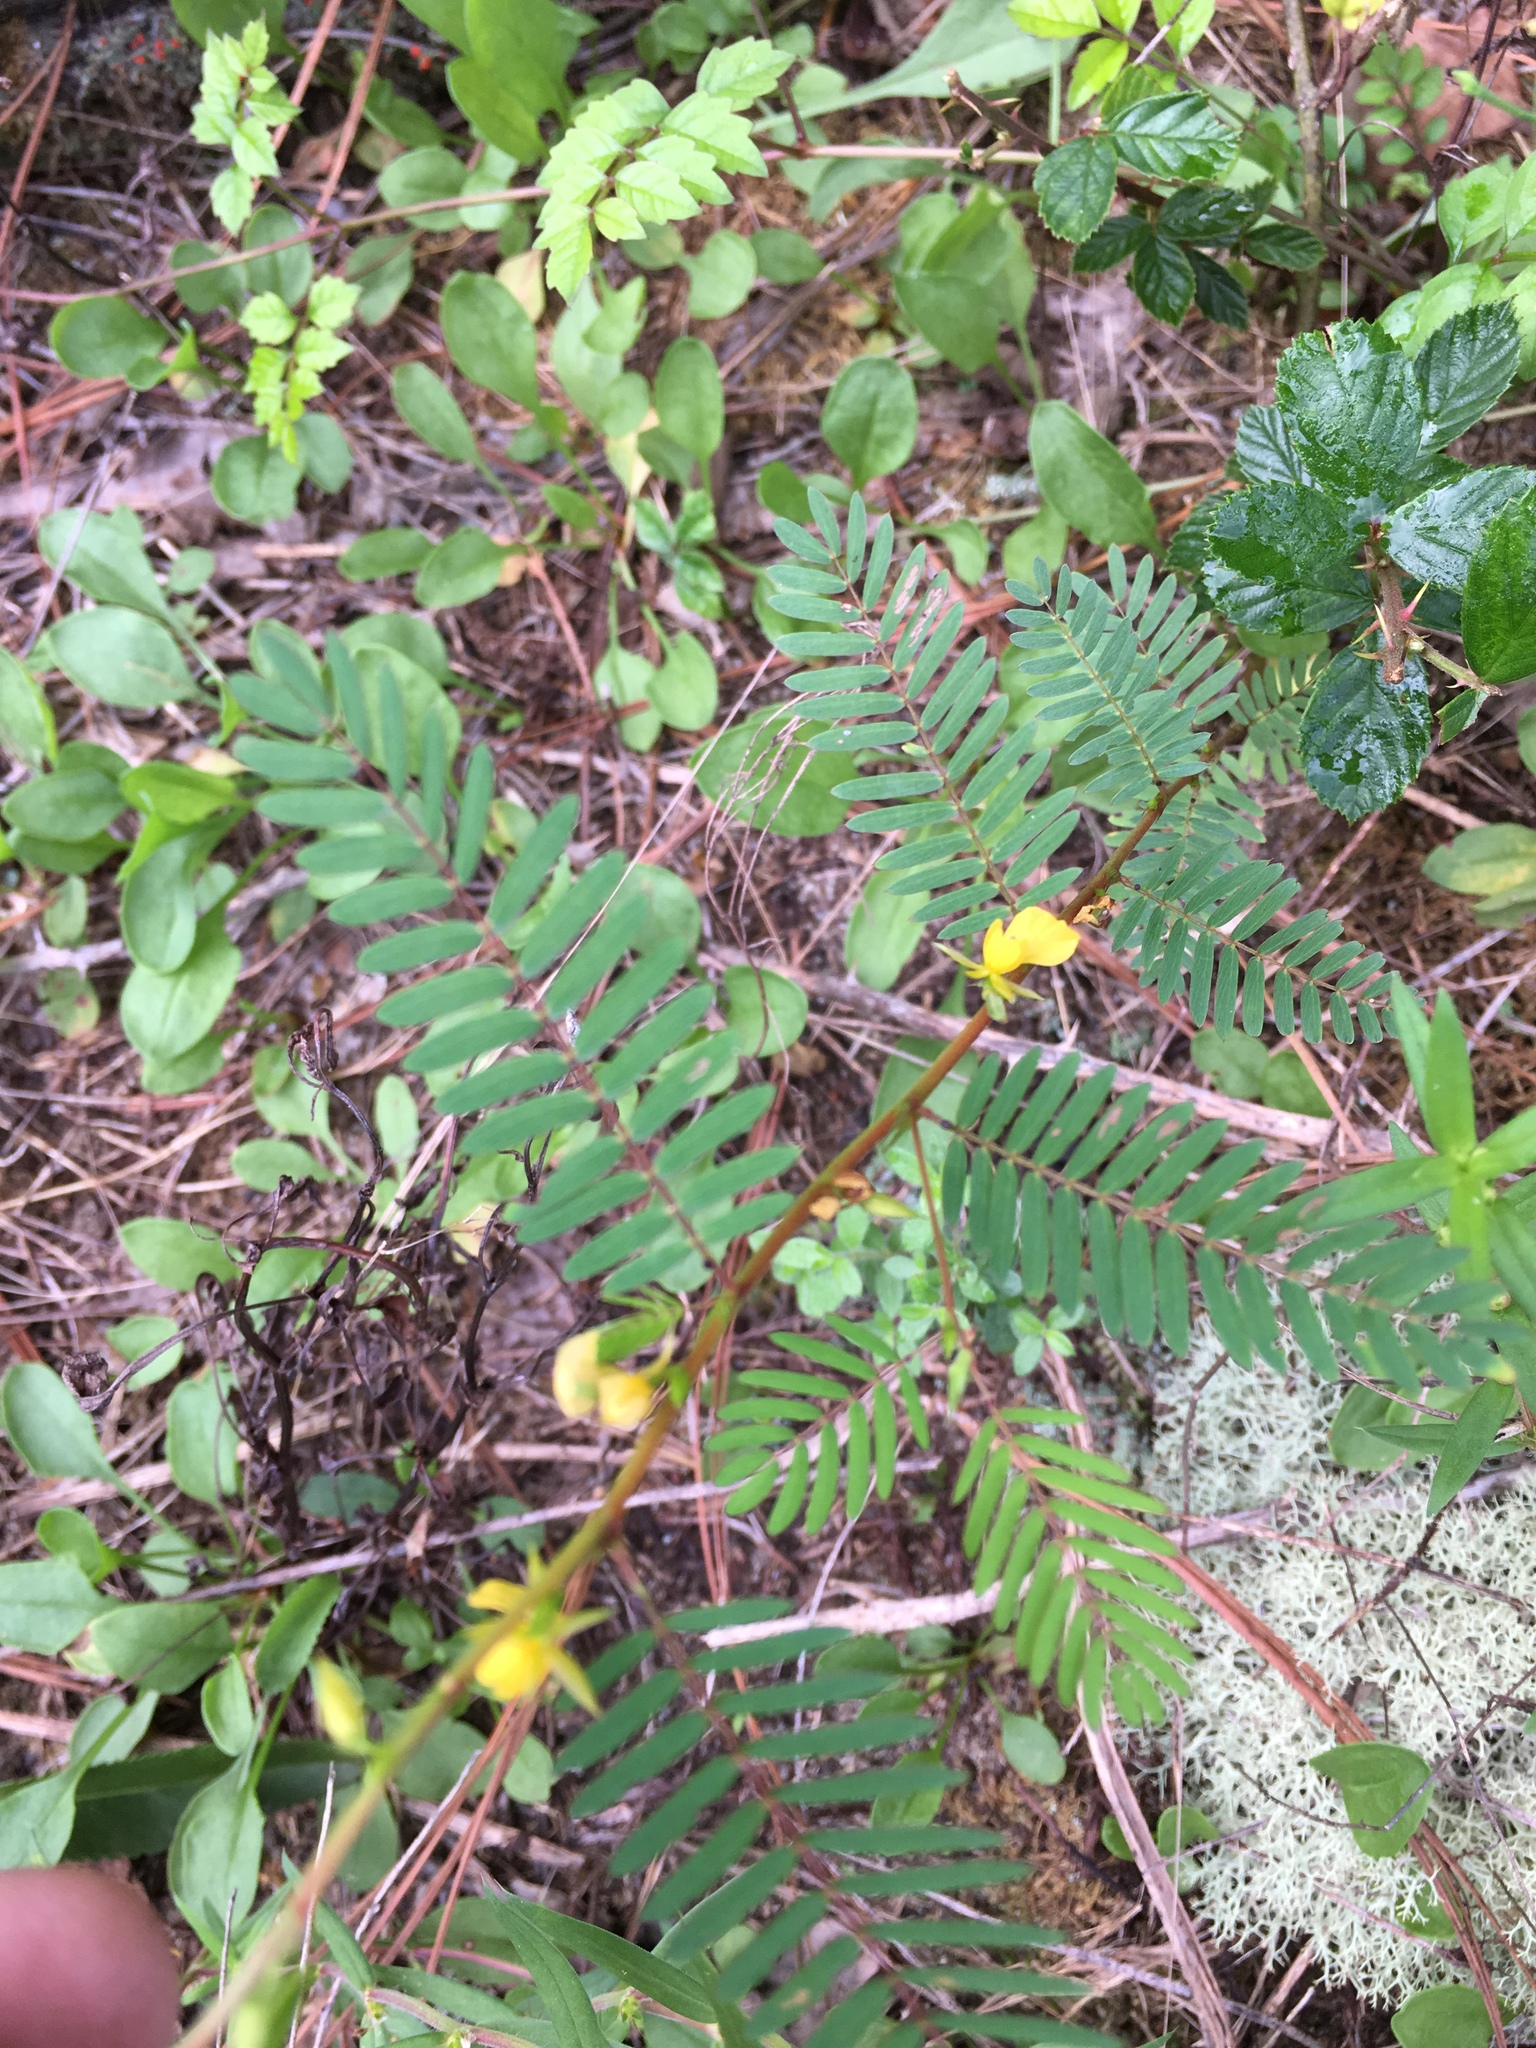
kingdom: Plantae
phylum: Tracheophyta
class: Magnoliopsida
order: Fabales
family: Fabaceae
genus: Chamaecrista
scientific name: Chamaecrista nictitans
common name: Sensitive cassia
